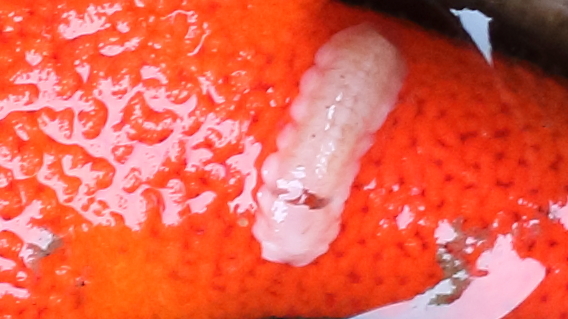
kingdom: Animalia
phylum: Annelida
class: Polychaeta
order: Phyllodocida
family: Polynoidae
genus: Arctonoe
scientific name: Arctonoe vittata
